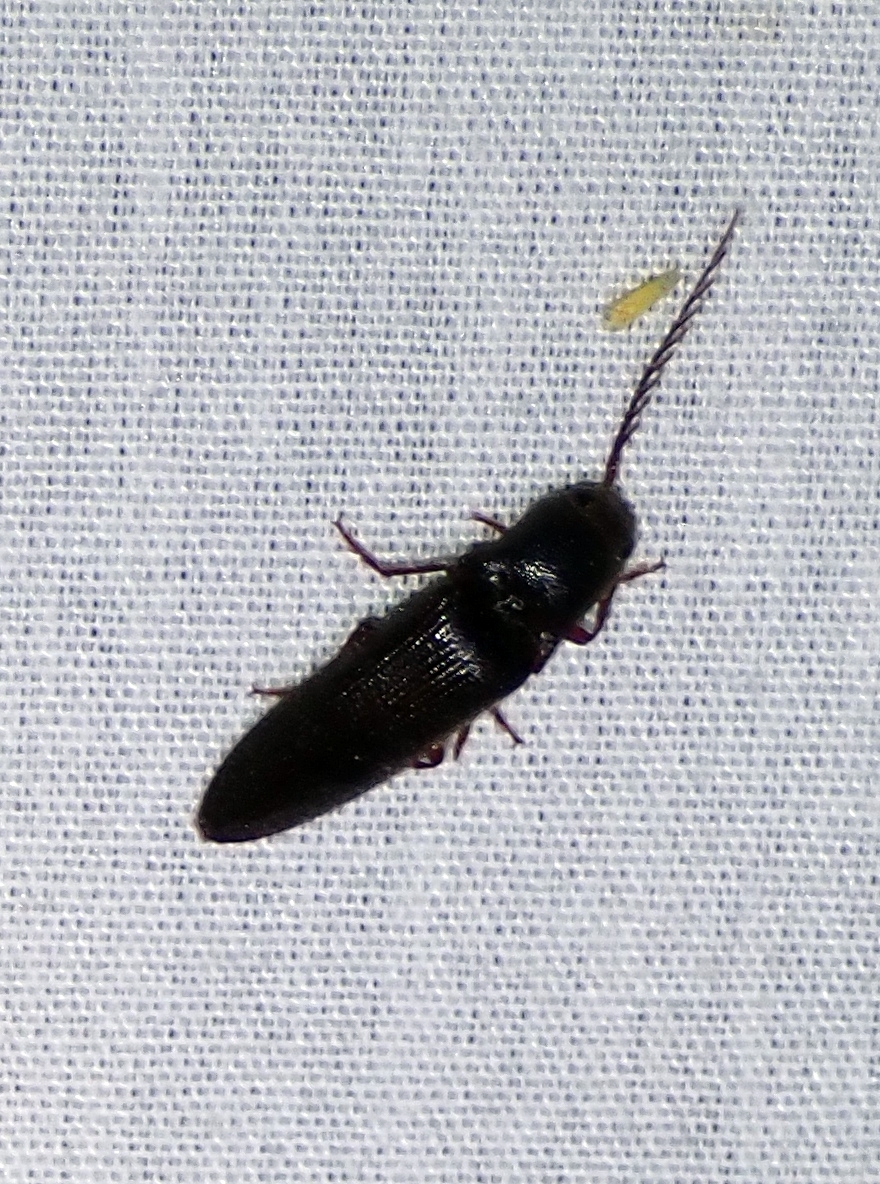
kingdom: Animalia
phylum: Arthropoda
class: Insecta
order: Coleoptera
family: Elateridae
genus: Dicrepidius
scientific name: Dicrepidius corvinus
